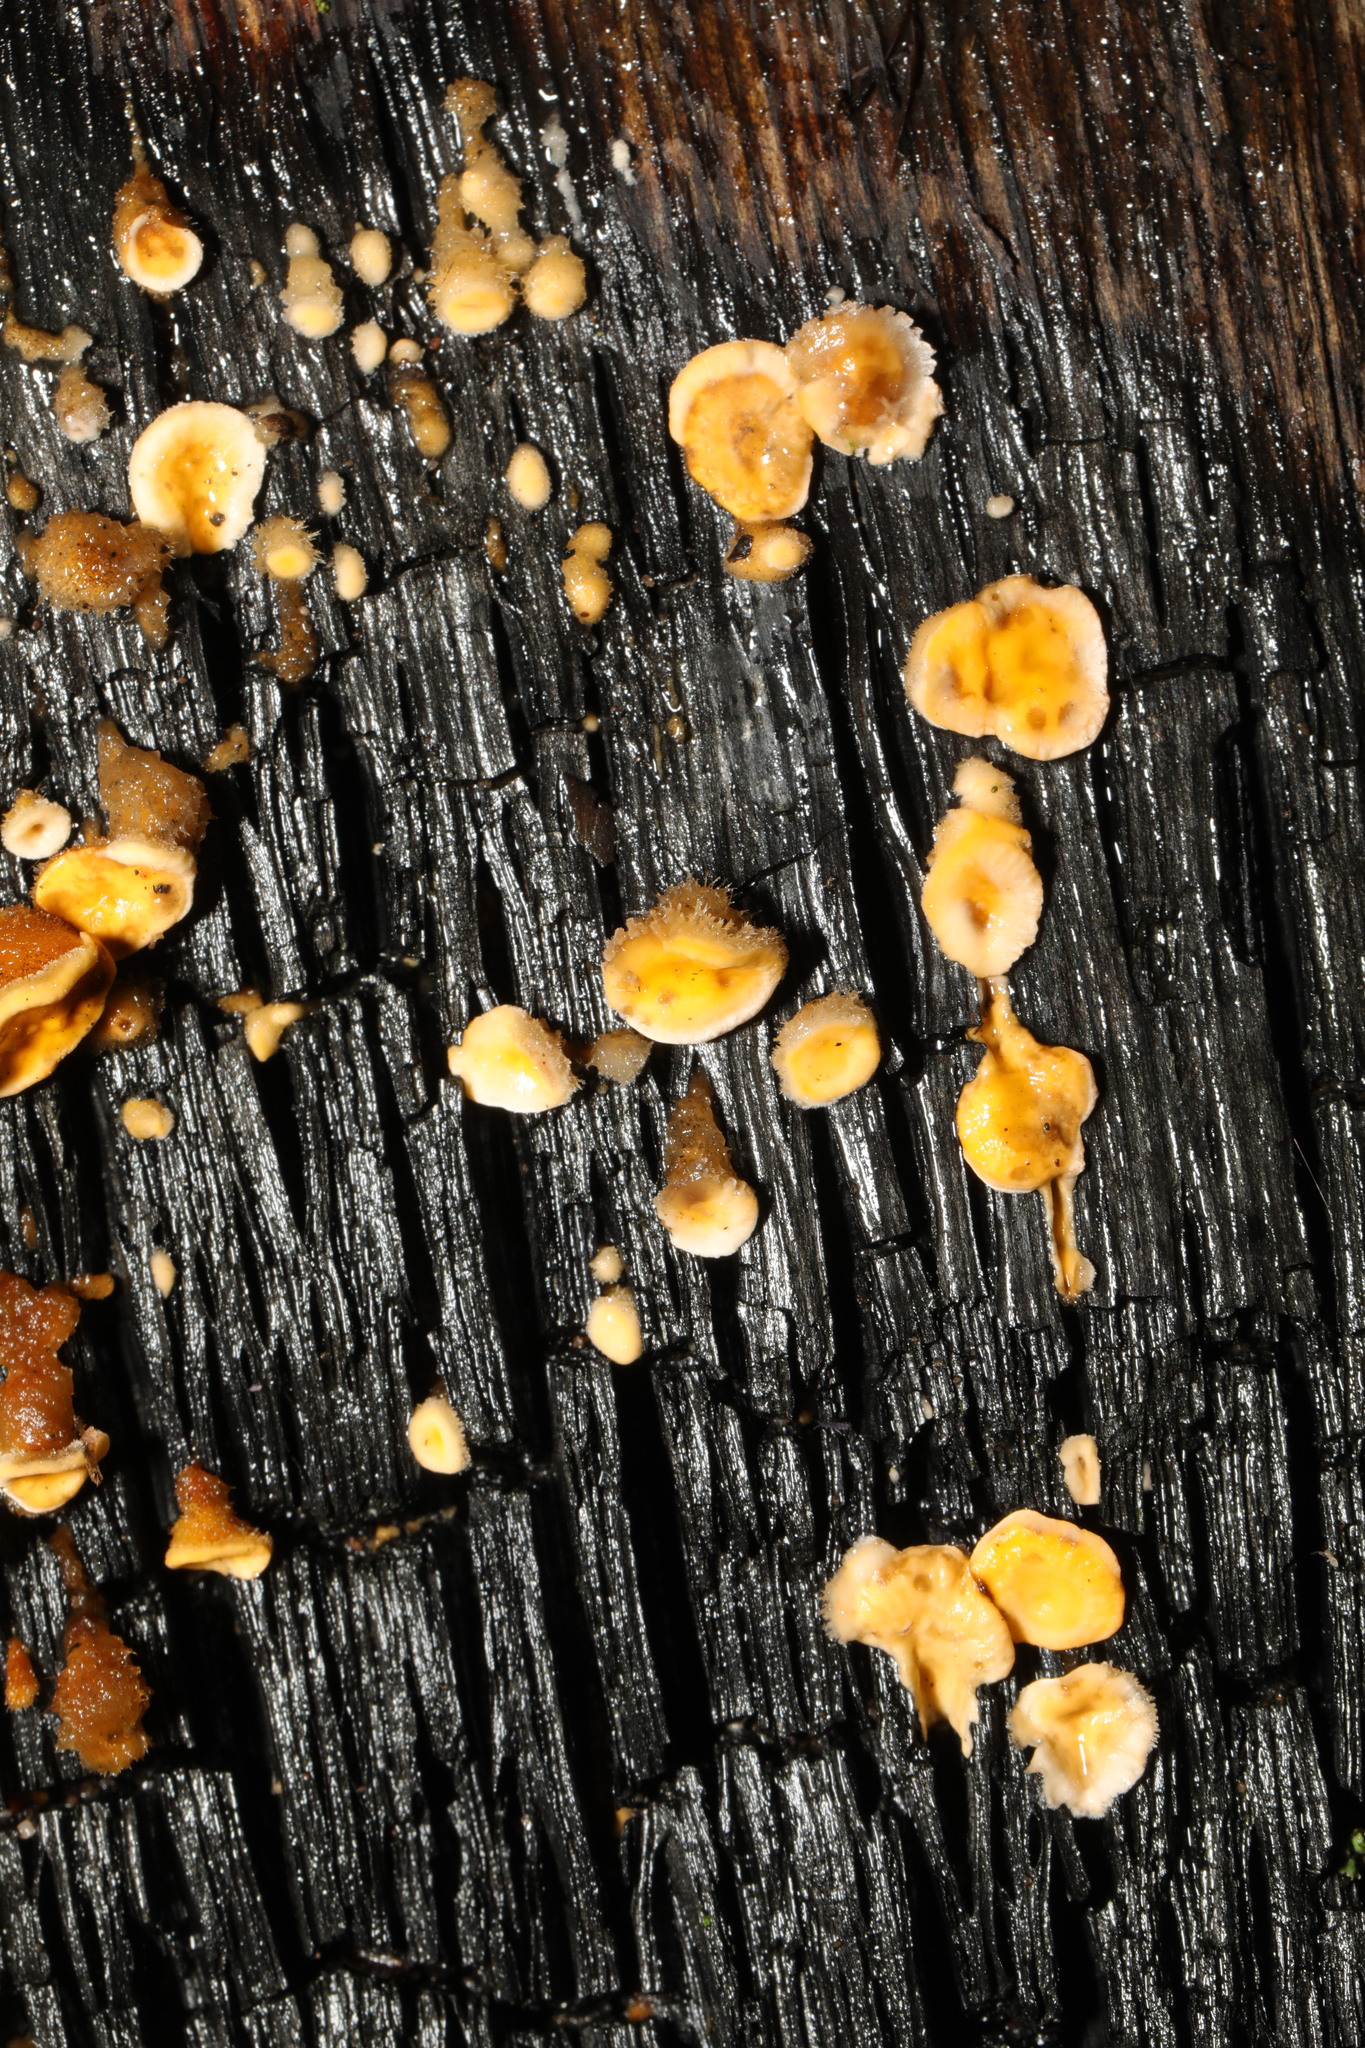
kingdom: Fungi
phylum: Basidiomycota
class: Agaricomycetes
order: Russulales
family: Stereaceae
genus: Stereum
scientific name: Stereum hirsutum
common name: Hairy curtain crust
